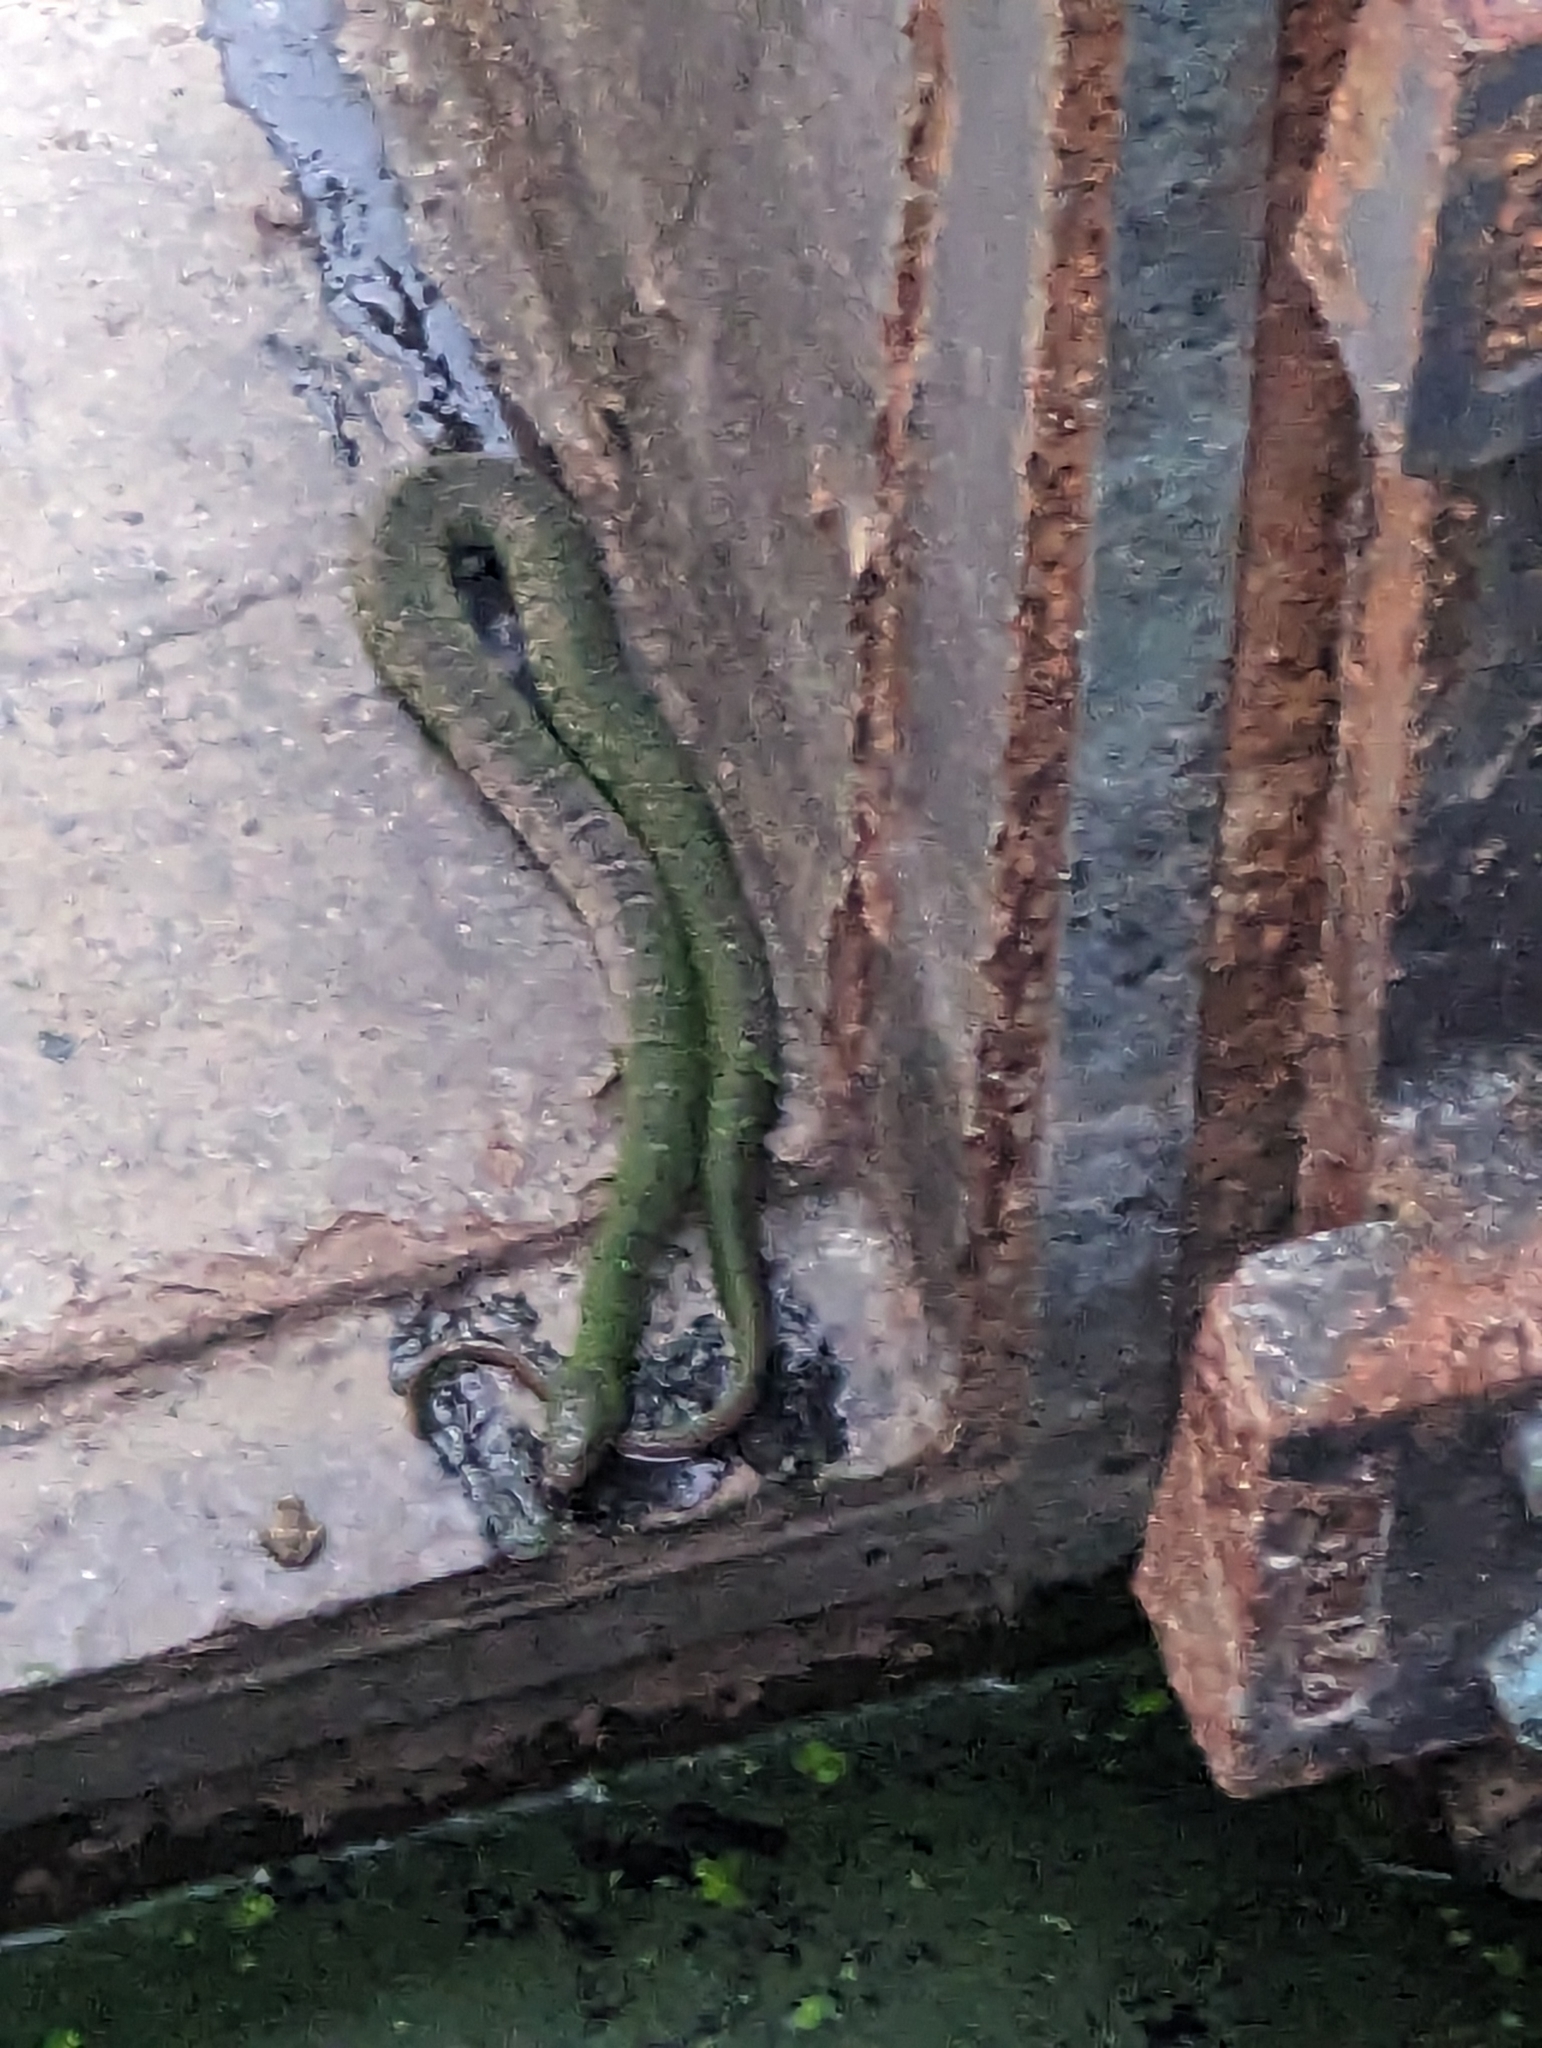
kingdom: Animalia
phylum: Chordata
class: Squamata
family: Colubridae
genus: Nerodia
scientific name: Nerodia erythrogaster
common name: Plainbelly water snake
